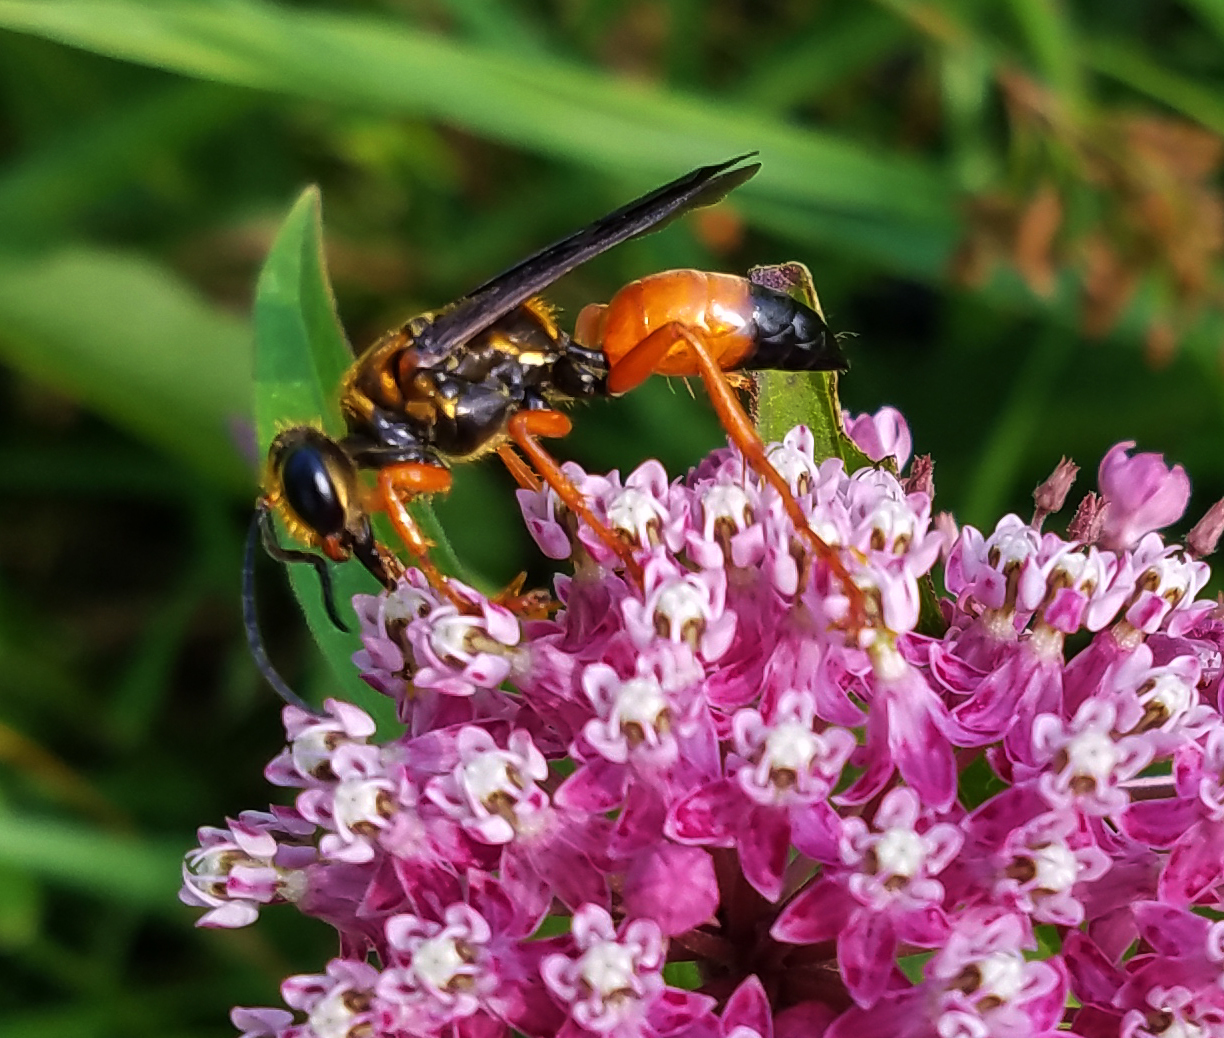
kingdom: Animalia
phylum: Arthropoda
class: Insecta
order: Hymenoptera
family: Sphecidae
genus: Sphex
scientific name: Sphex ichneumoneus
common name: Great golden digger wasp
